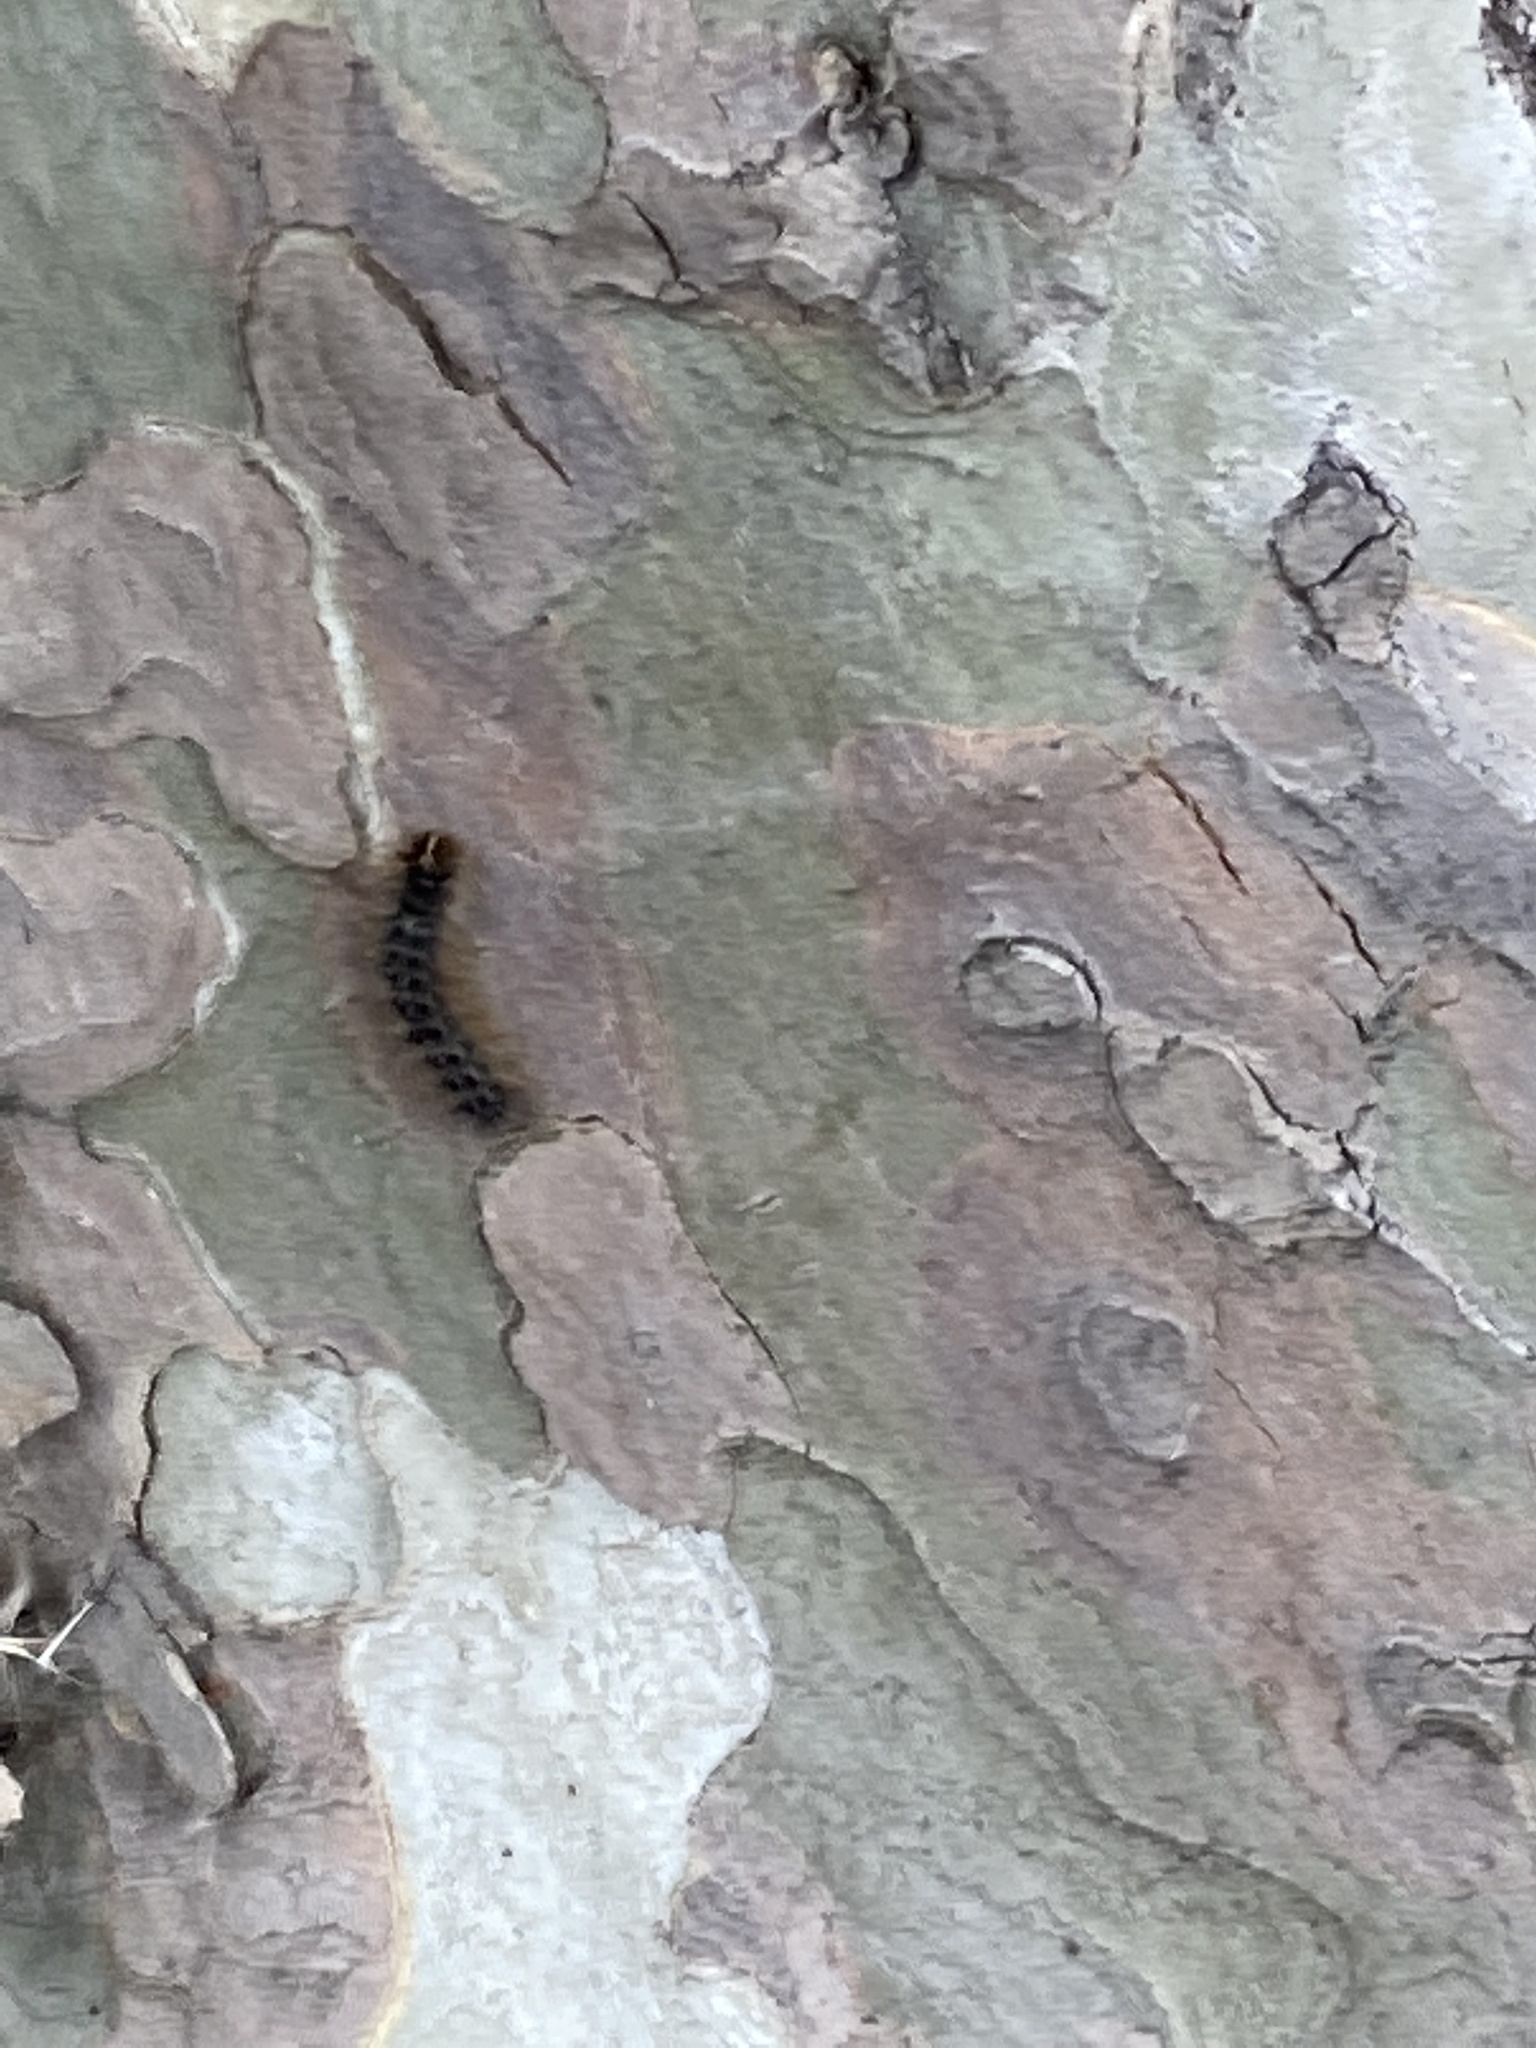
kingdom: Animalia
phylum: Arthropoda
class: Insecta
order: Lepidoptera
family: Erebidae
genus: Lymantria
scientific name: Lymantria dispar
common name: Gypsy moth
